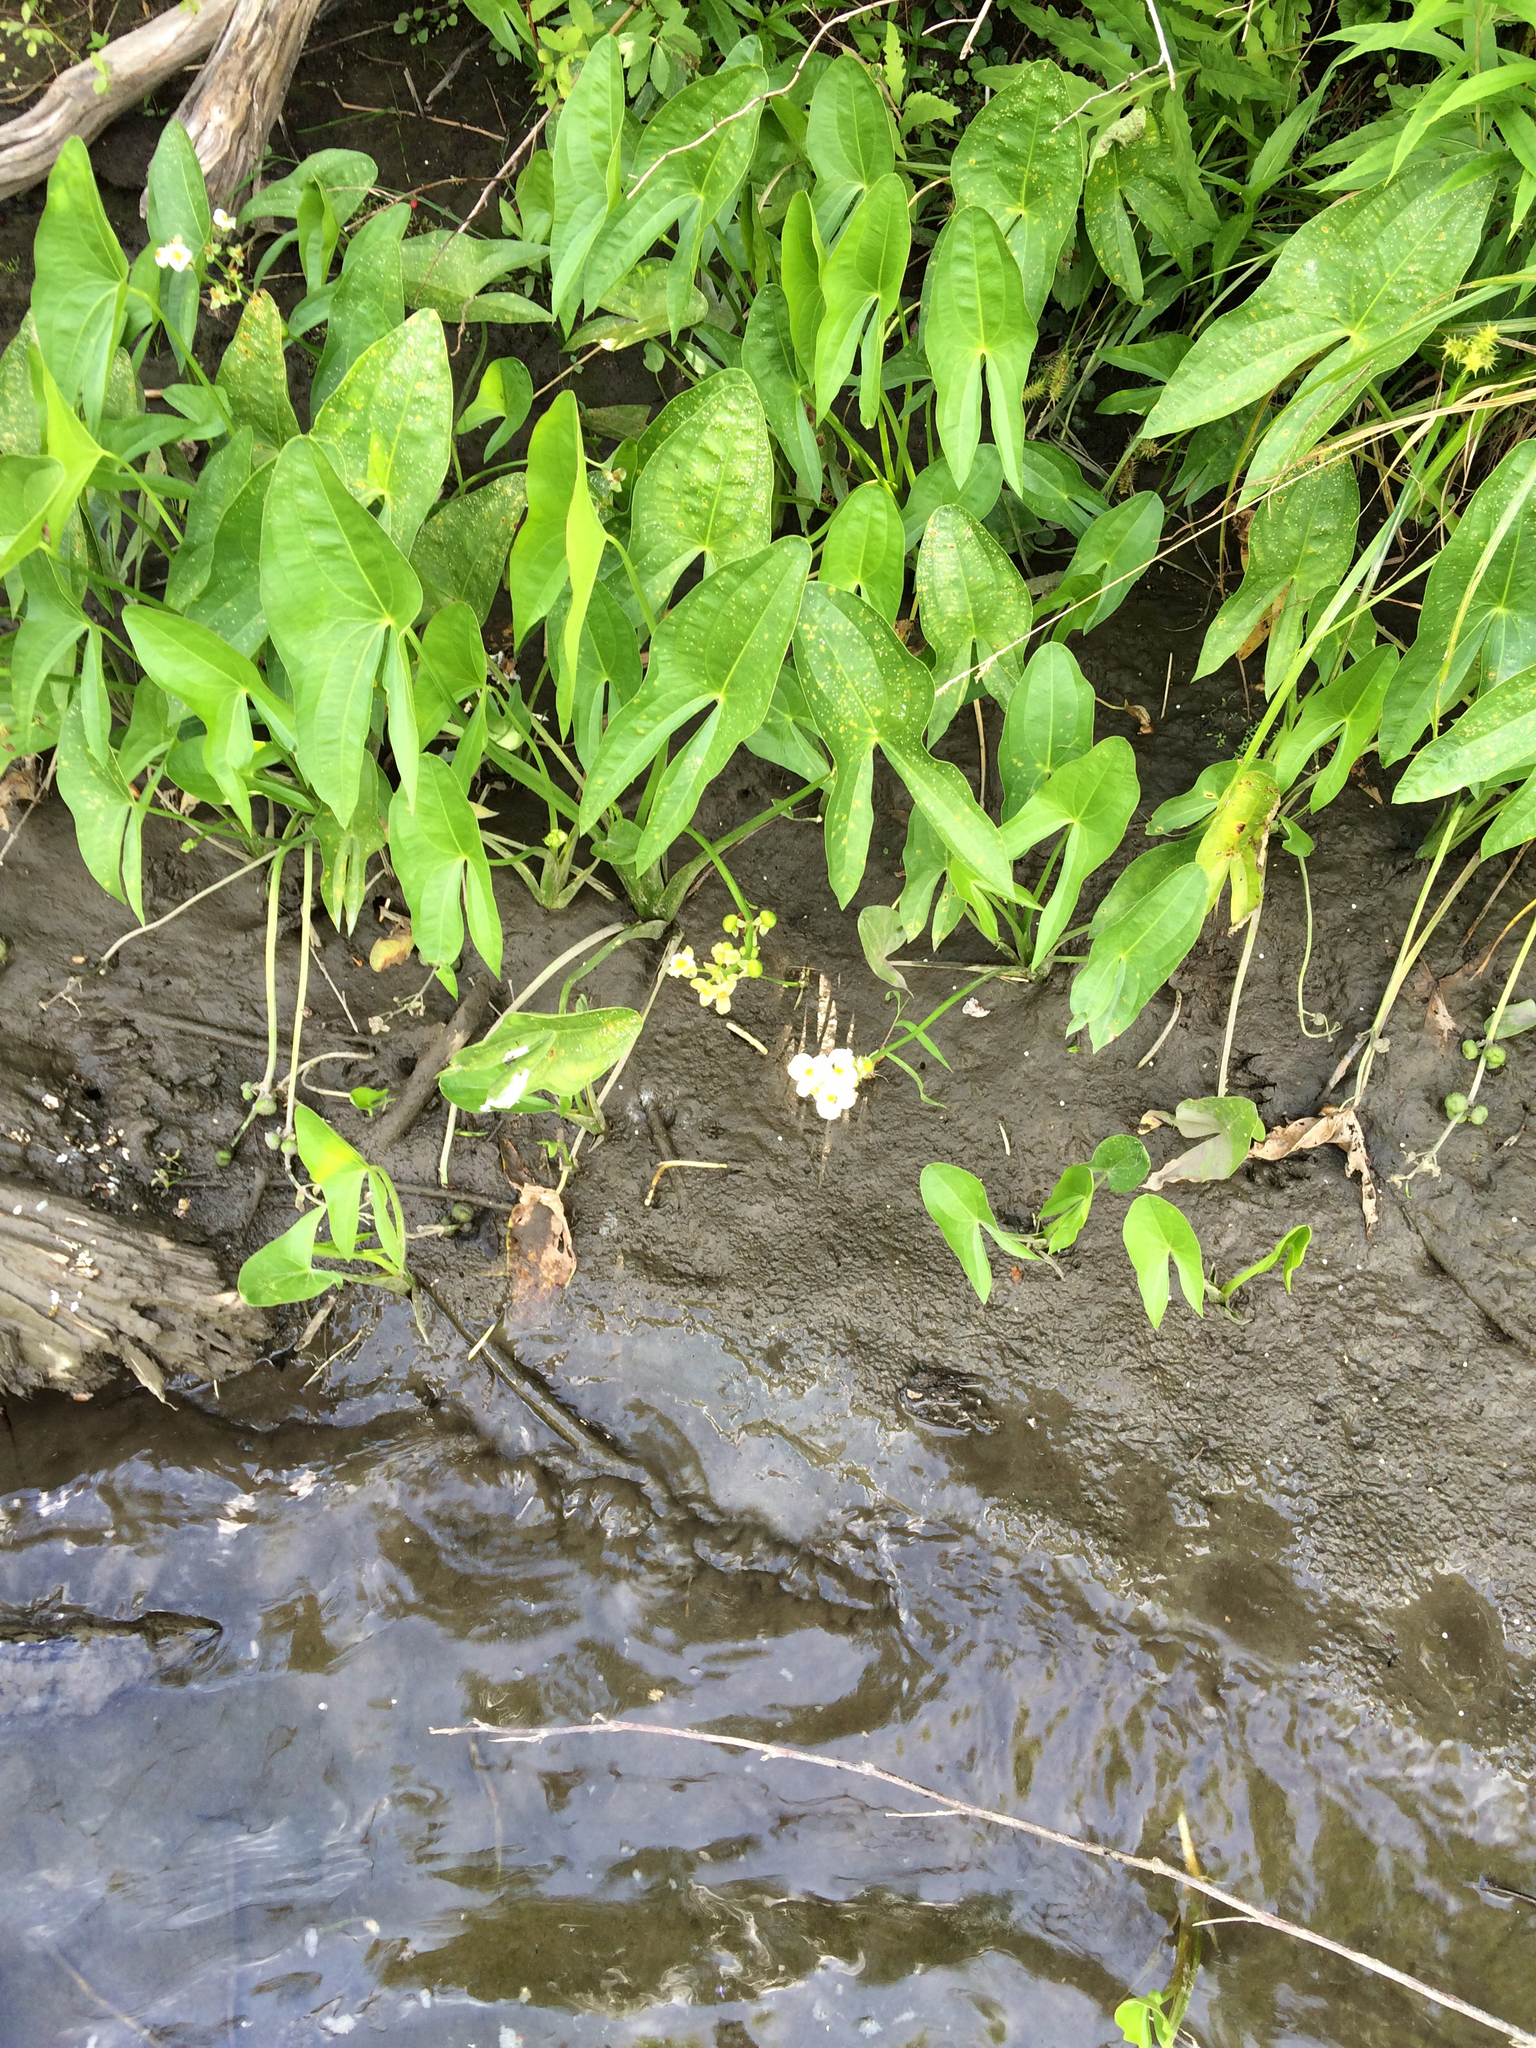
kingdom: Plantae
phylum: Tracheophyta
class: Liliopsida
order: Alismatales
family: Alismataceae
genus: Sagittaria
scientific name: Sagittaria latifolia
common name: Duck-potato
